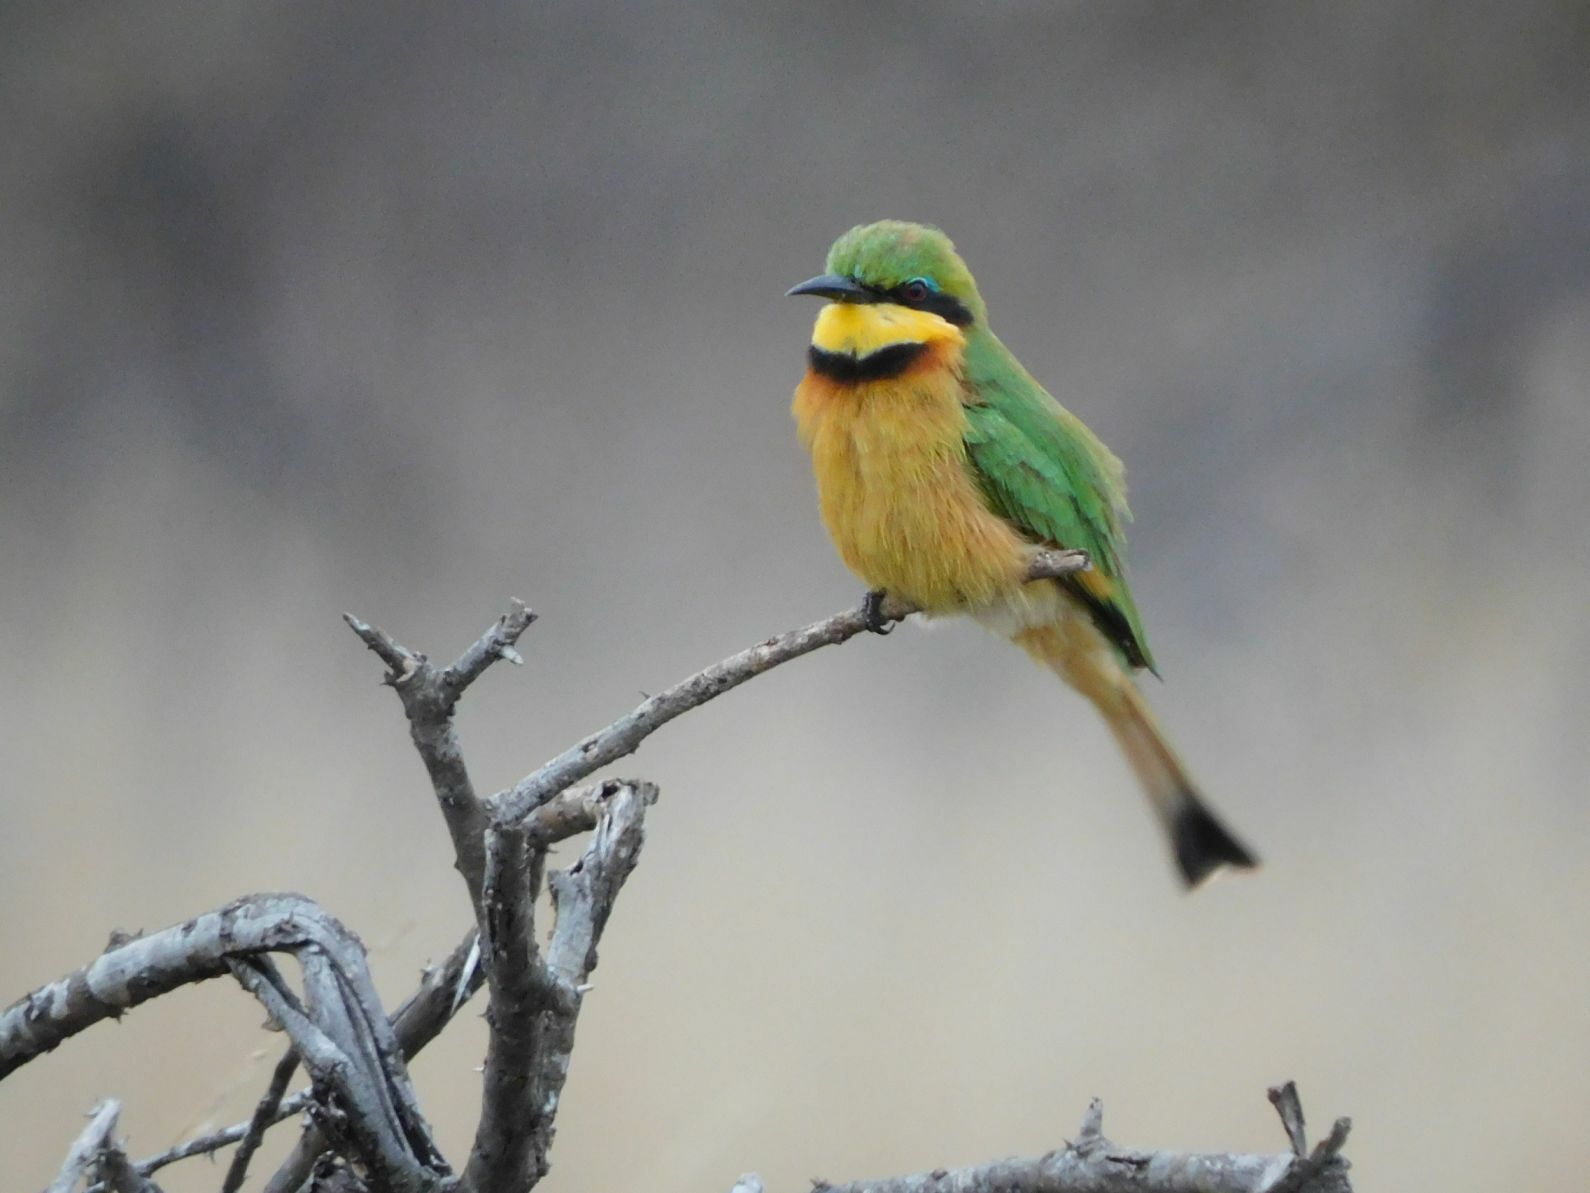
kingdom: Animalia
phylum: Chordata
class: Aves
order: Coraciiformes
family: Meropidae
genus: Merops
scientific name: Merops pusillus
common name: Little bee-eater
